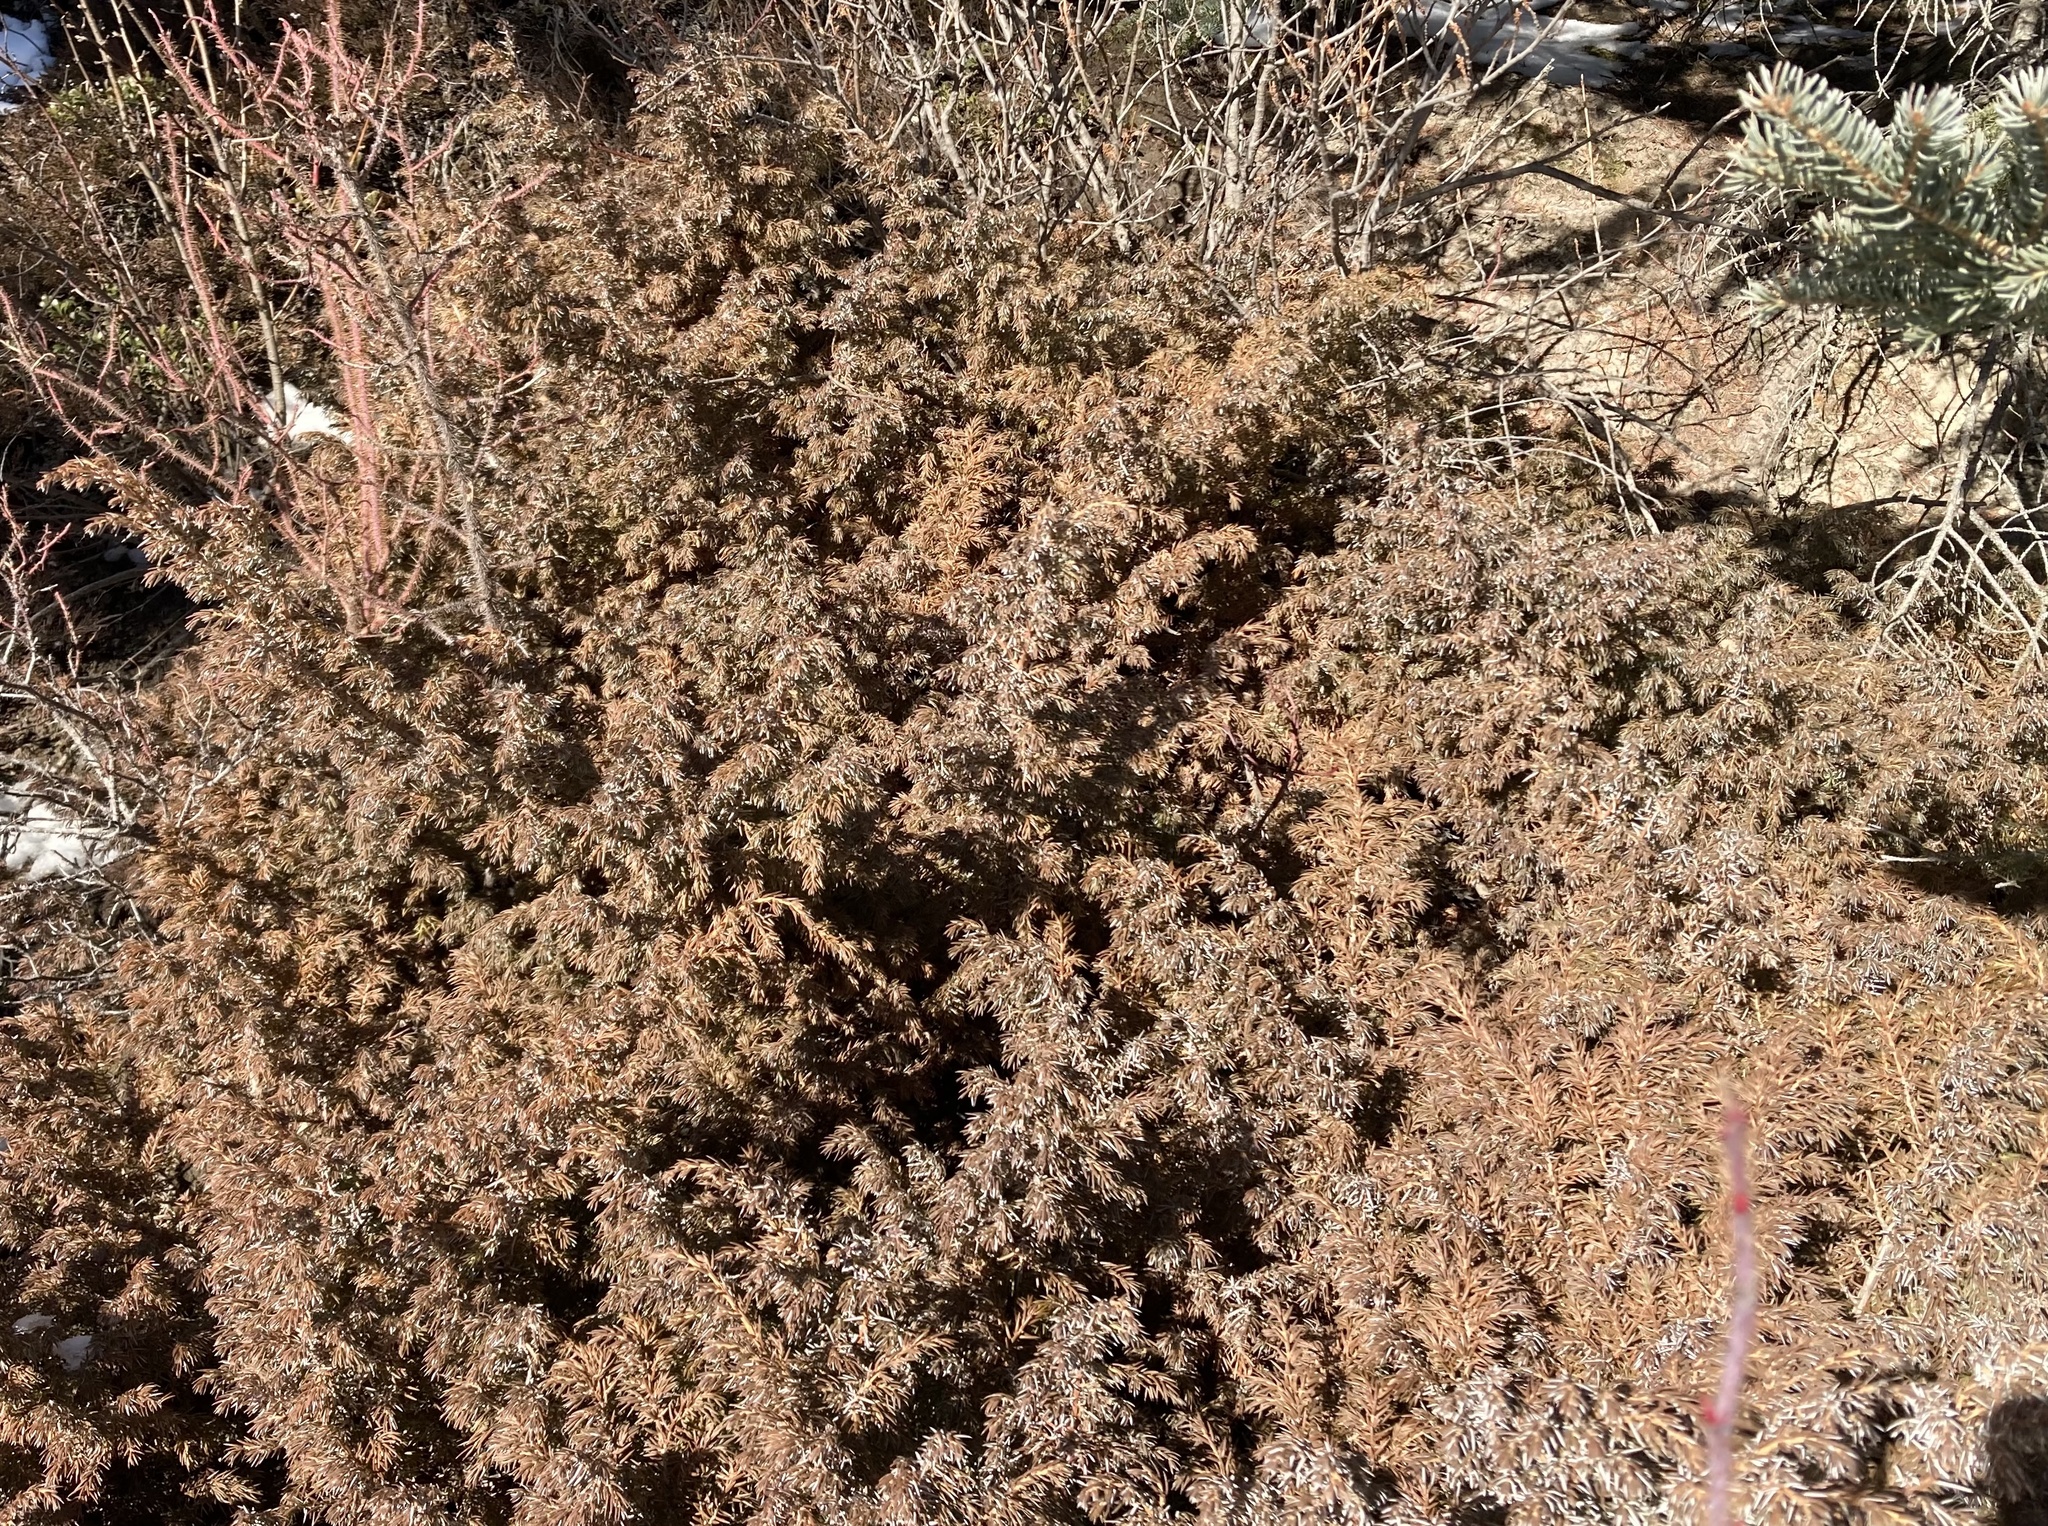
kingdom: Plantae
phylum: Tracheophyta
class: Pinopsida
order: Pinales
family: Cupressaceae
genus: Juniperus
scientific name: Juniperus communis
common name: Common juniper
